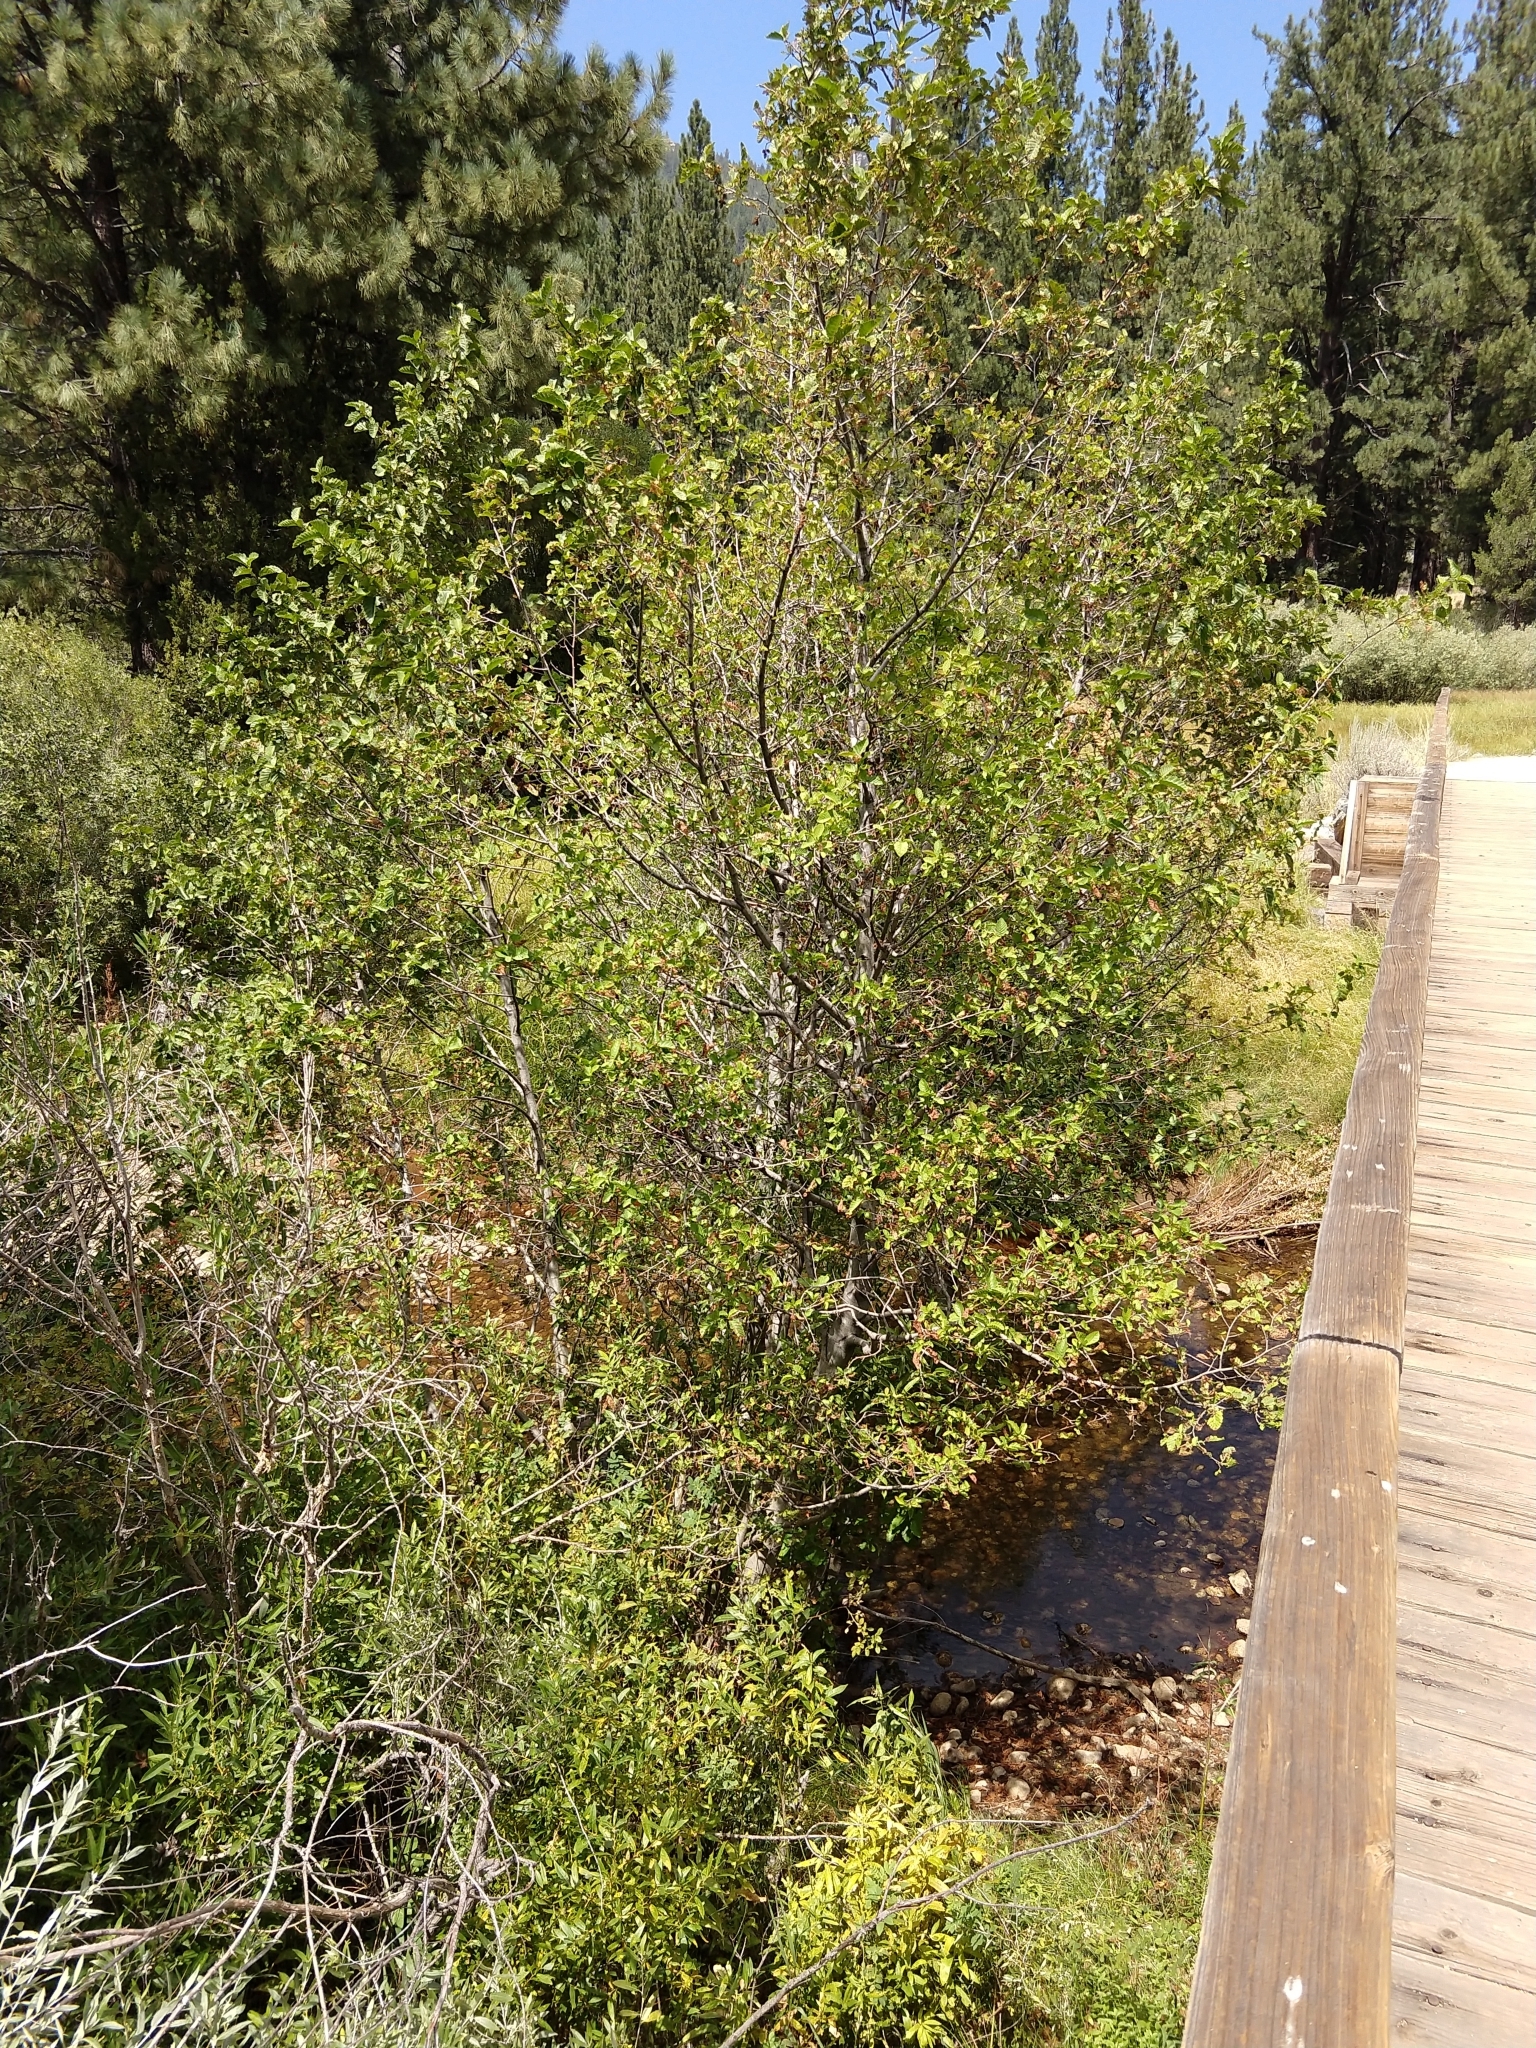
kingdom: Plantae
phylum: Tracheophyta
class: Magnoliopsida
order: Fagales
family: Betulaceae
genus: Alnus
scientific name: Alnus incana
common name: Grey alder
